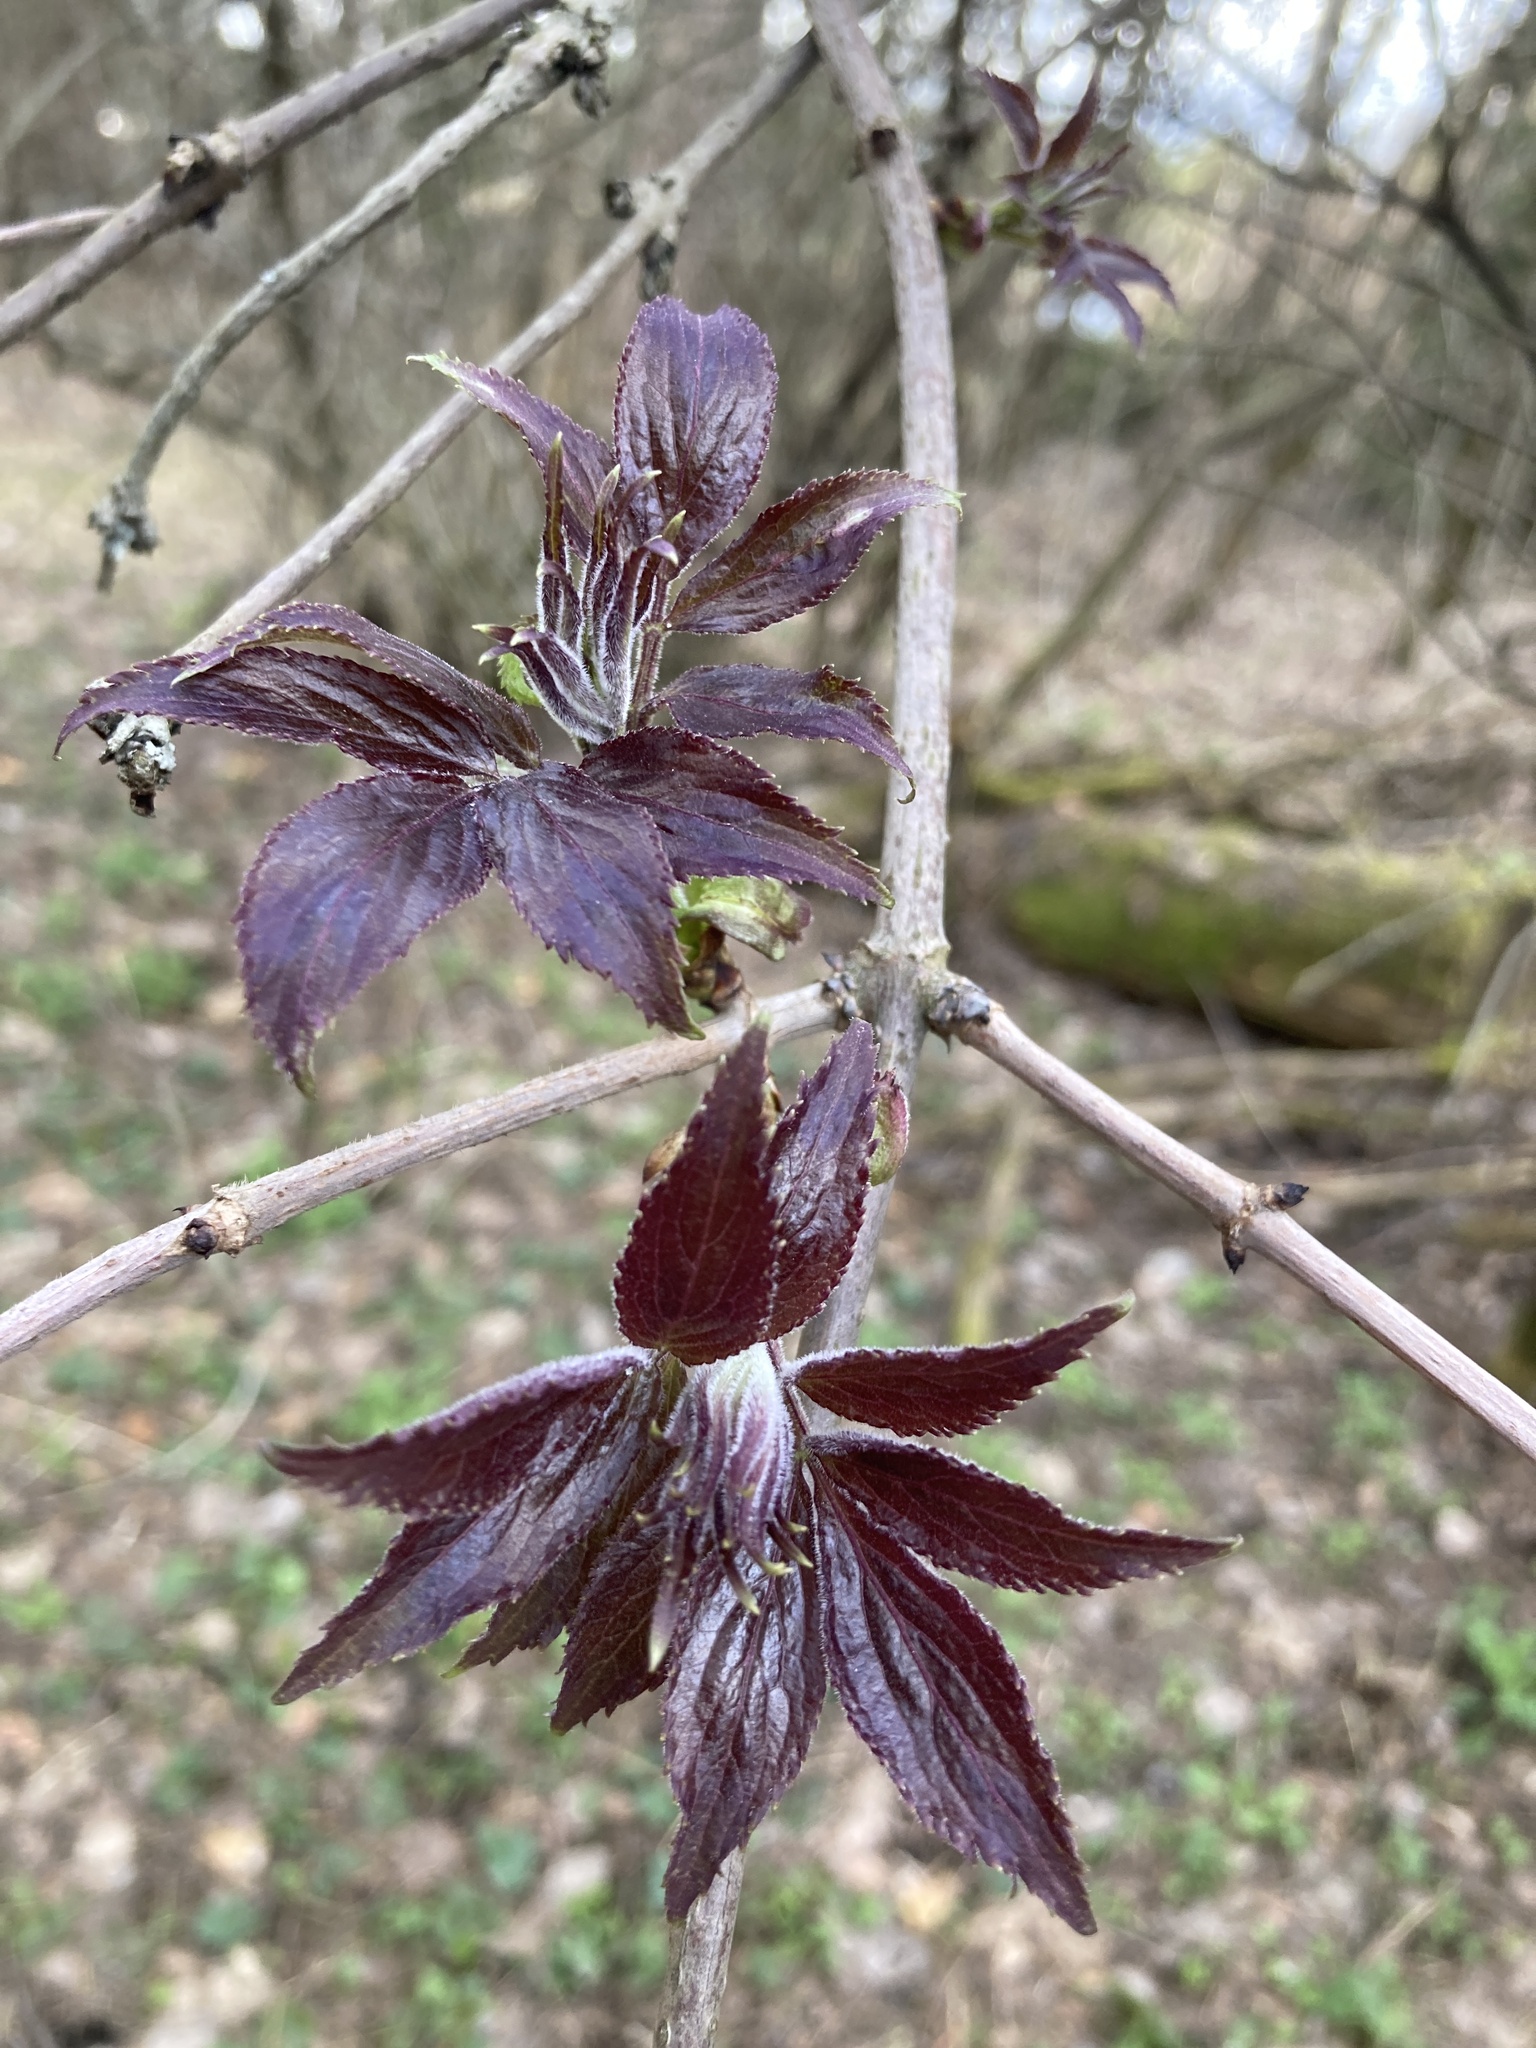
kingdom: Plantae
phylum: Tracheophyta
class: Magnoliopsida
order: Dipsacales
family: Viburnaceae
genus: Sambucus
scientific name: Sambucus racemosa
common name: Red-berried elder
